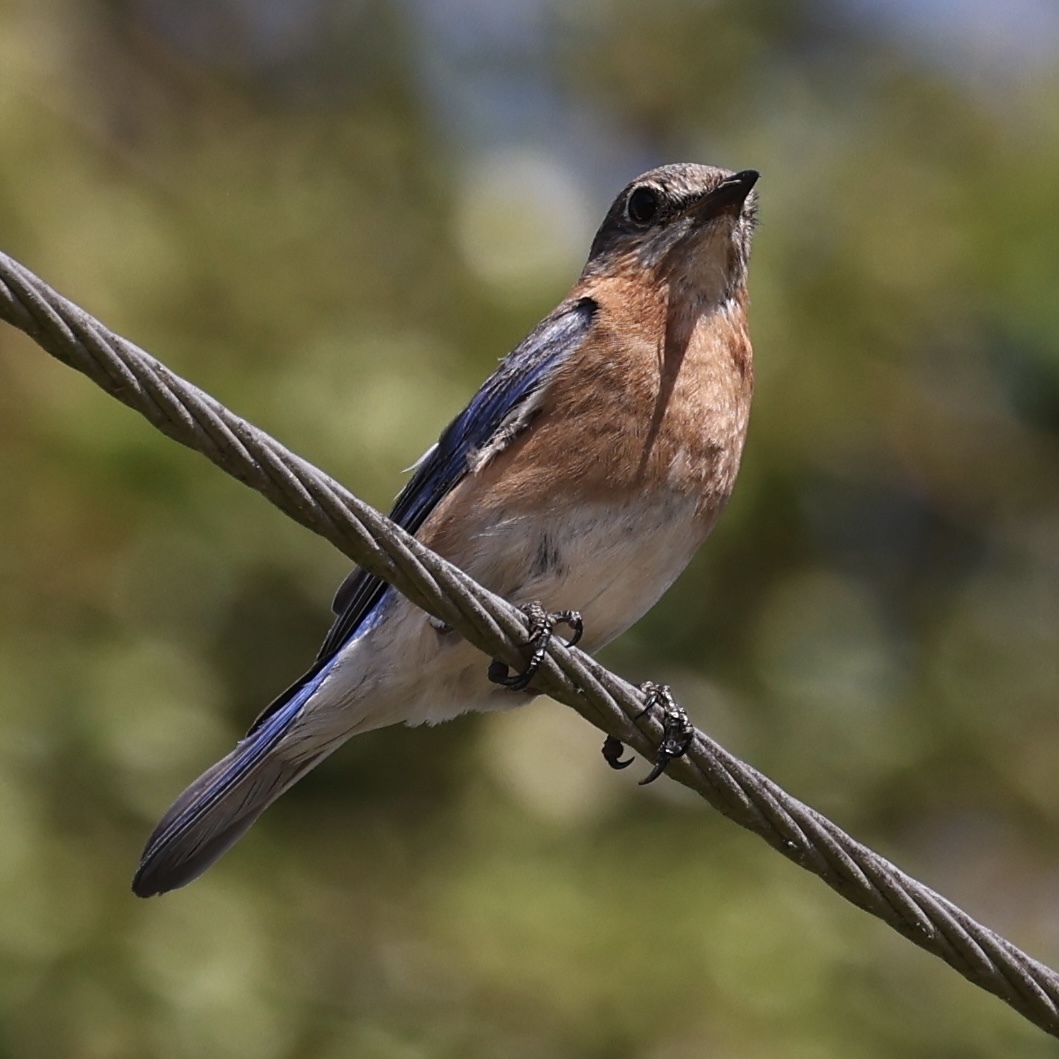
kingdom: Animalia
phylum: Chordata
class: Aves
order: Passeriformes
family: Turdidae
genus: Sialia
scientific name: Sialia sialis
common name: Eastern bluebird
